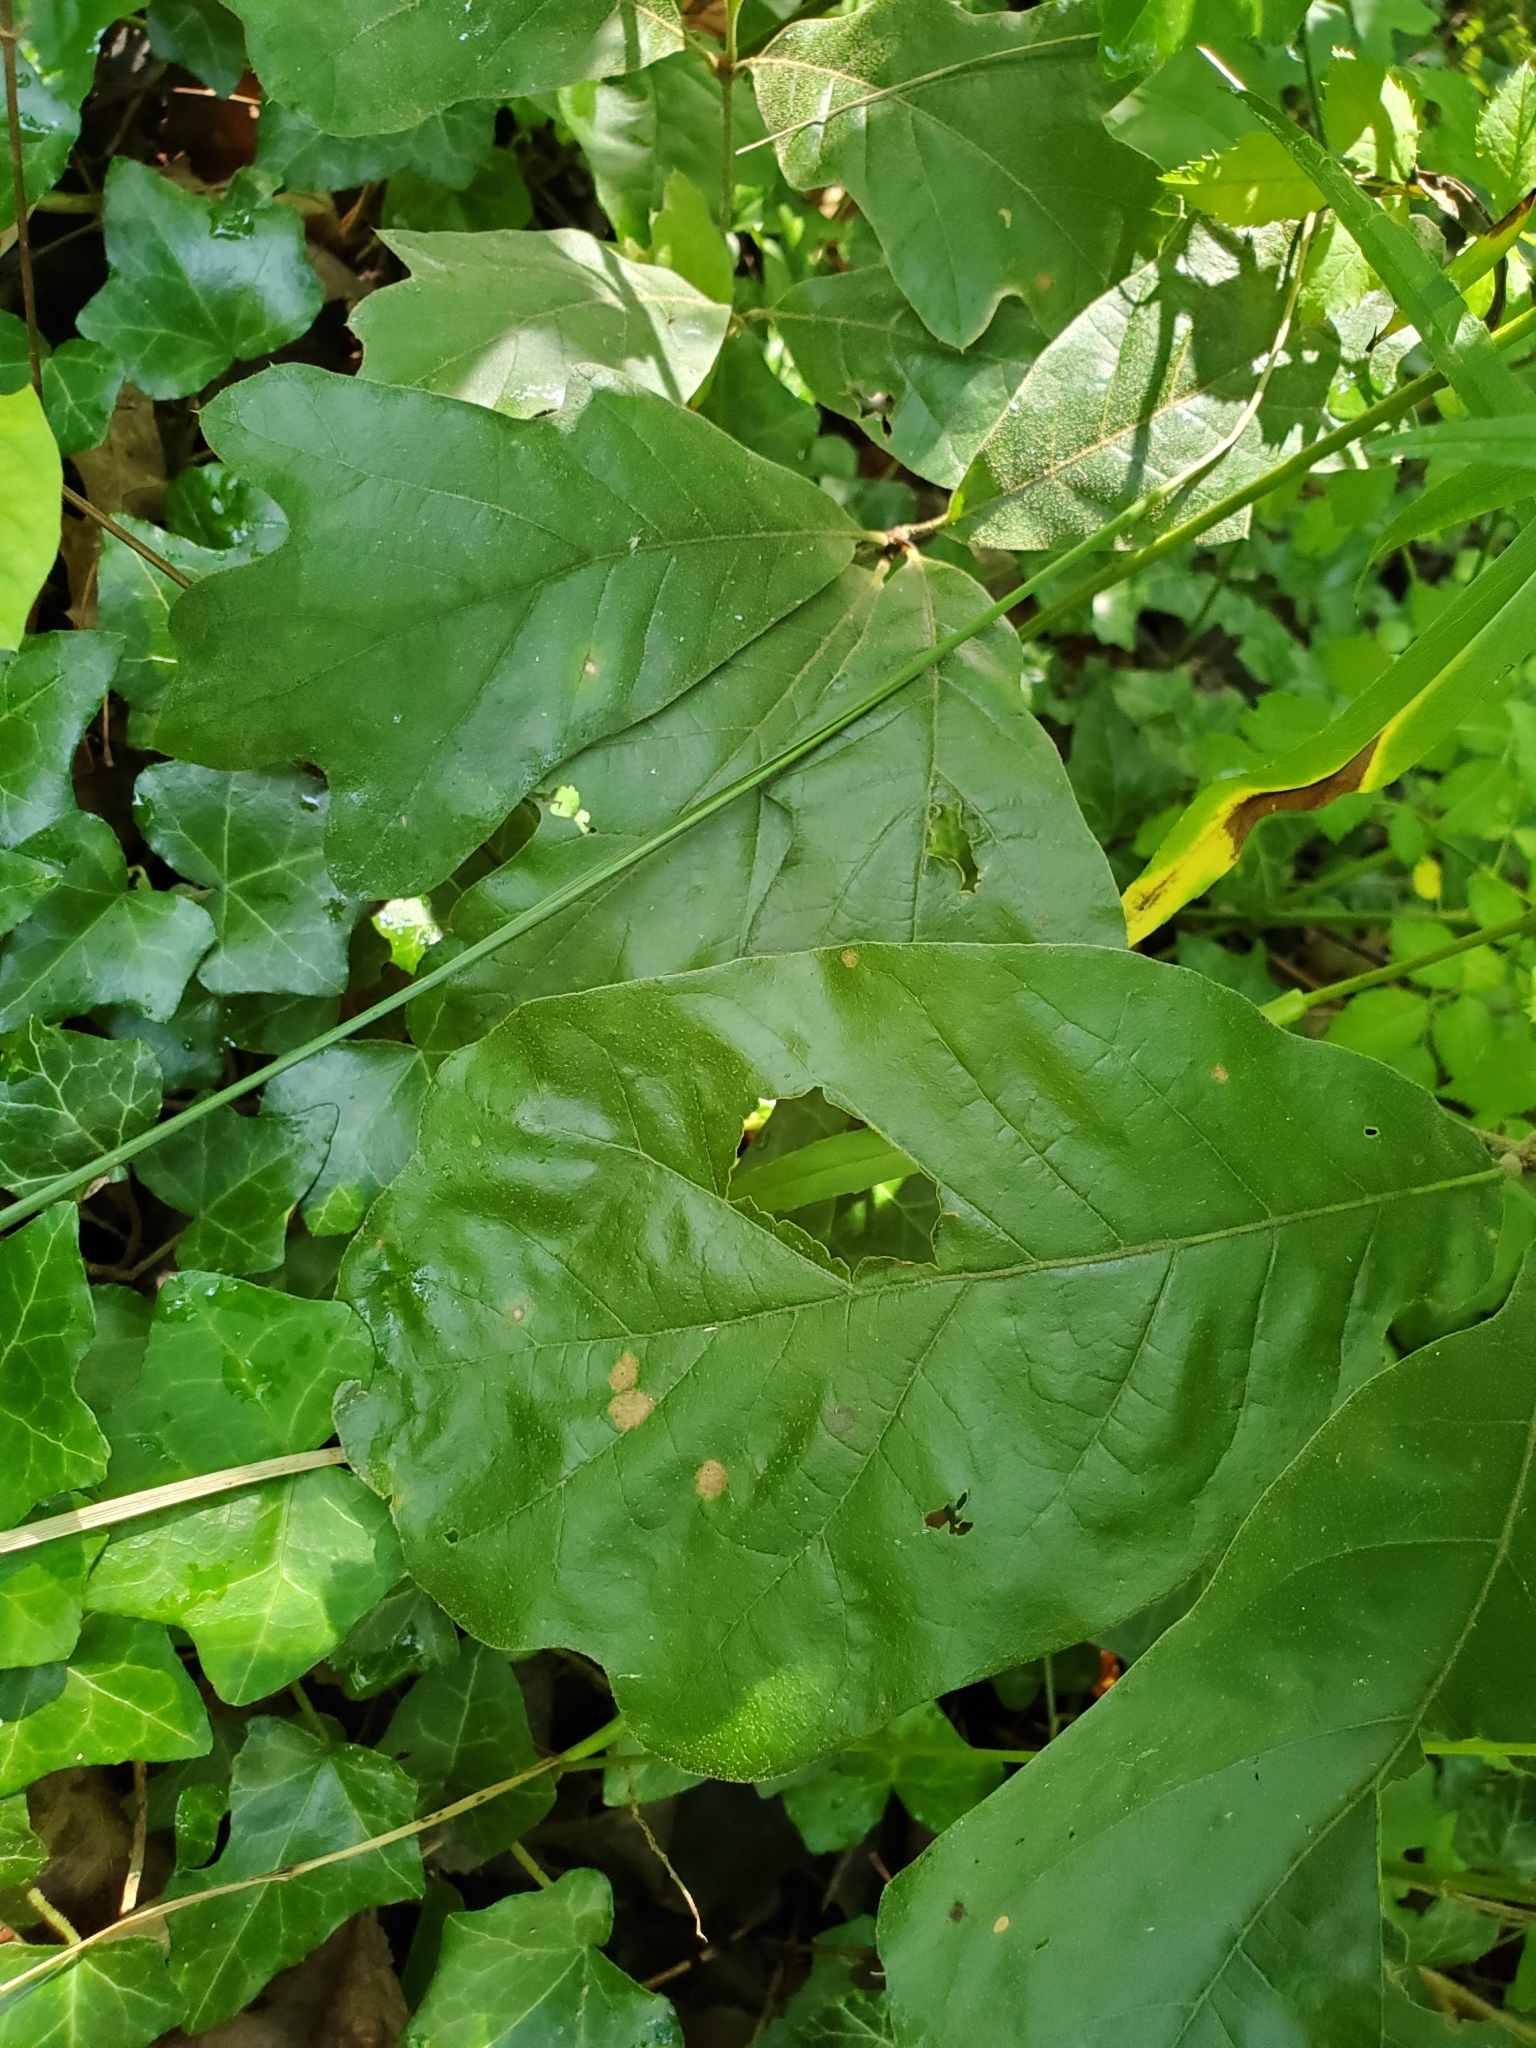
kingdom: Plantae
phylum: Tracheophyta
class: Magnoliopsida
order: Fagales
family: Fagaceae
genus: Quercus
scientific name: Quercus falcata
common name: Southern red oak
